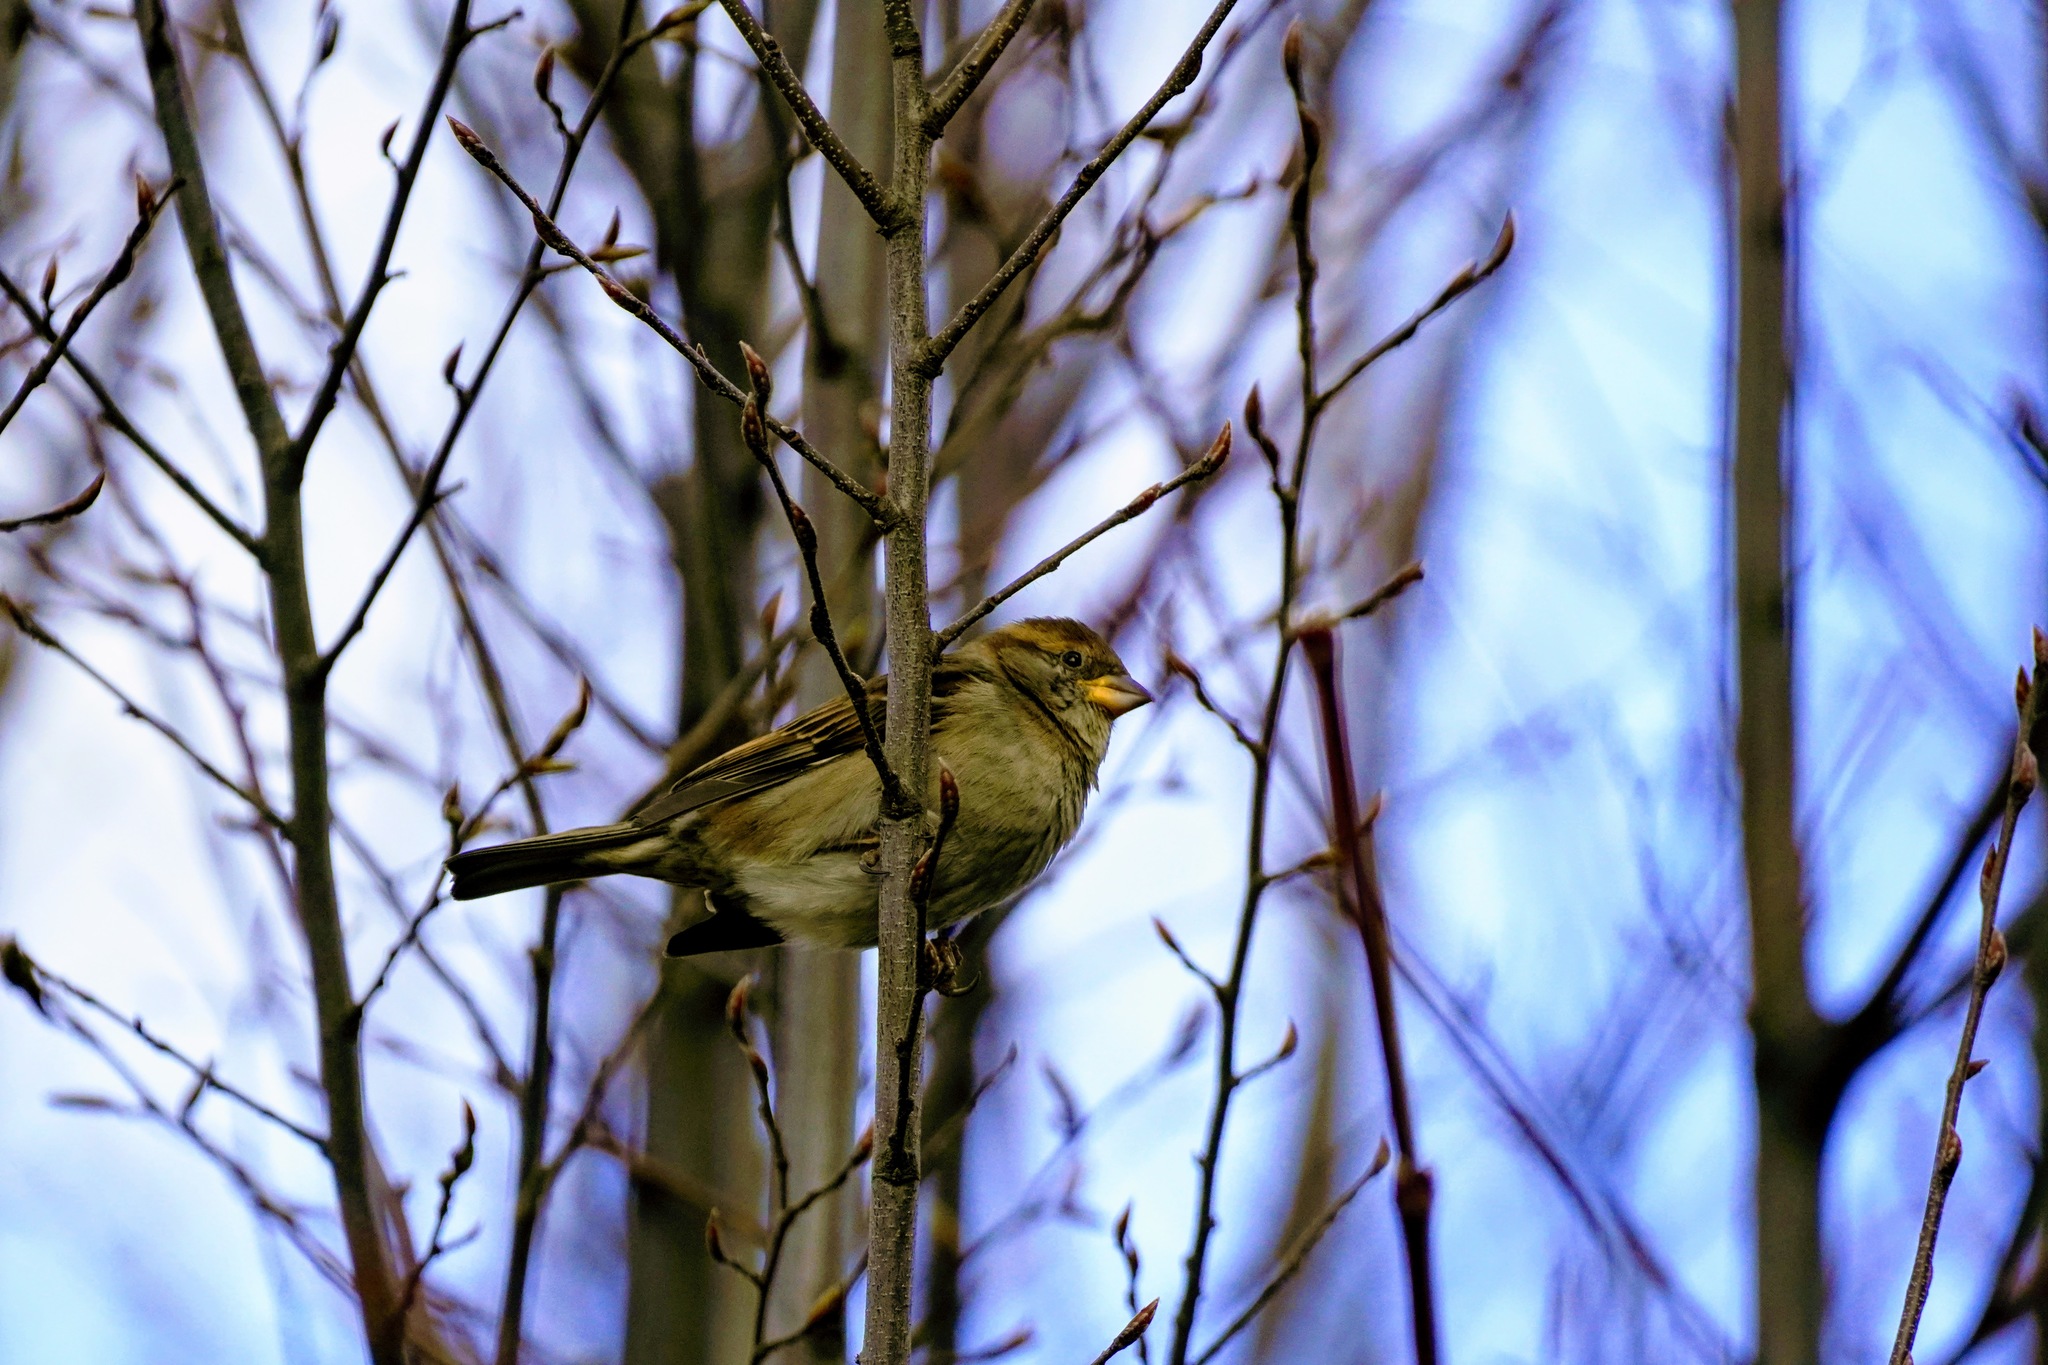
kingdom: Animalia
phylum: Chordata
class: Aves
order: Passeriformes
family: Passeridae
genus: Passer
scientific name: Passer domesticus
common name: House sparrow
